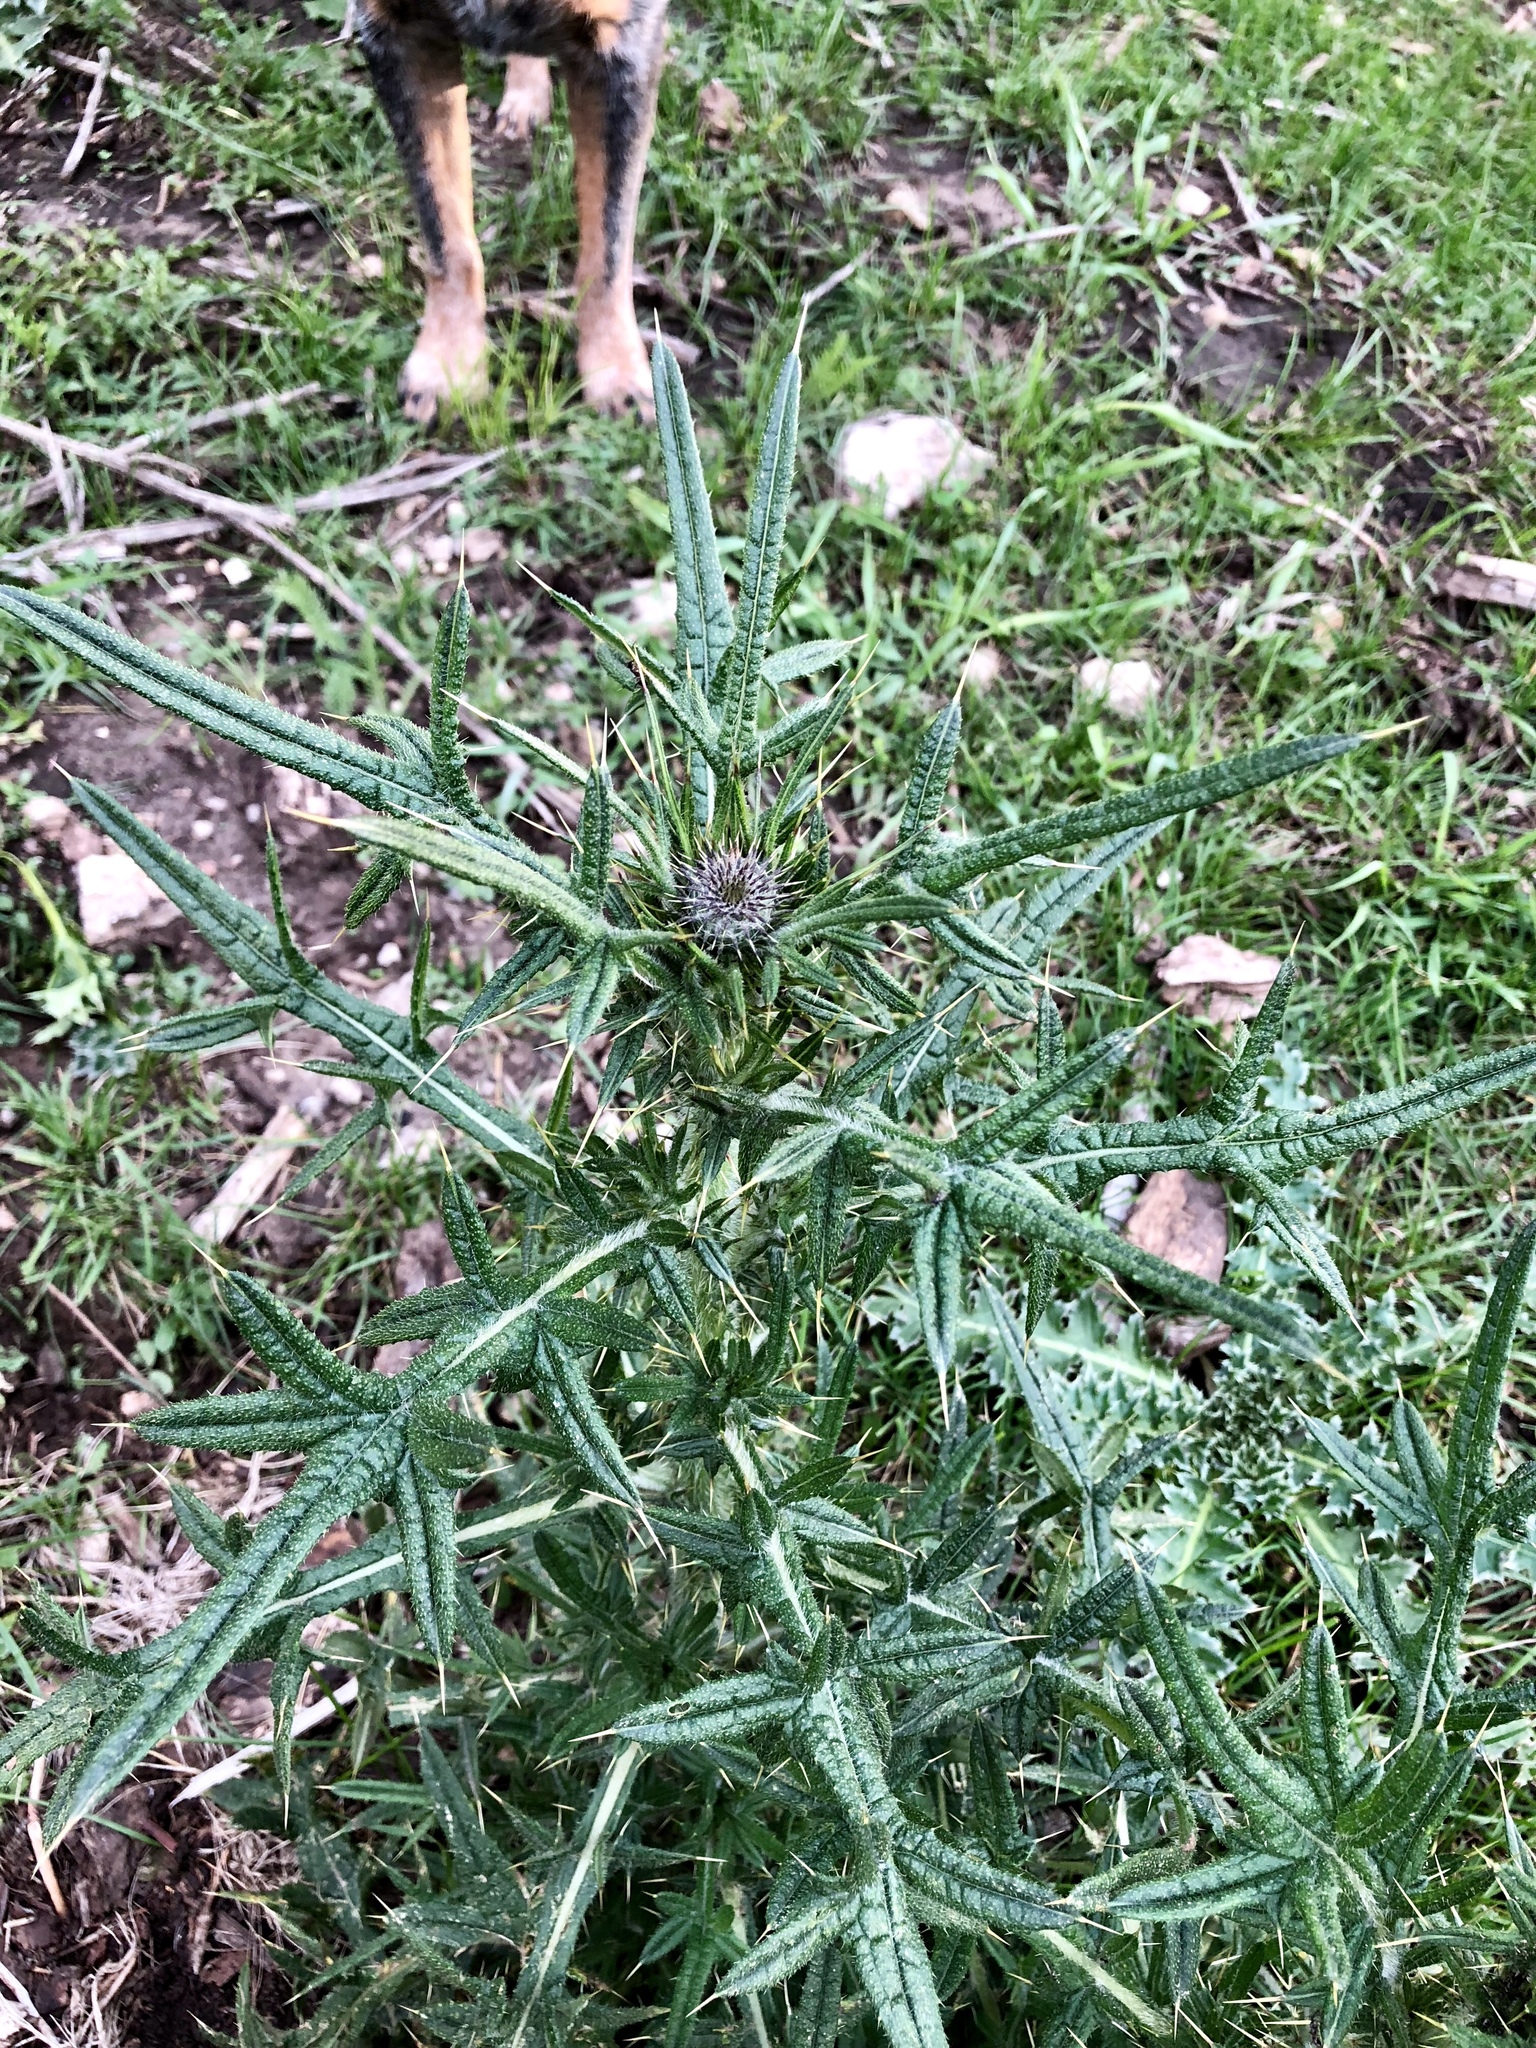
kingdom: Plantae
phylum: Tracheophyta
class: Magnoliopsida
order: Asterales
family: Asteraceae
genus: Cirsium
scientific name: Cirsium vulgare
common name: Bull thistle
